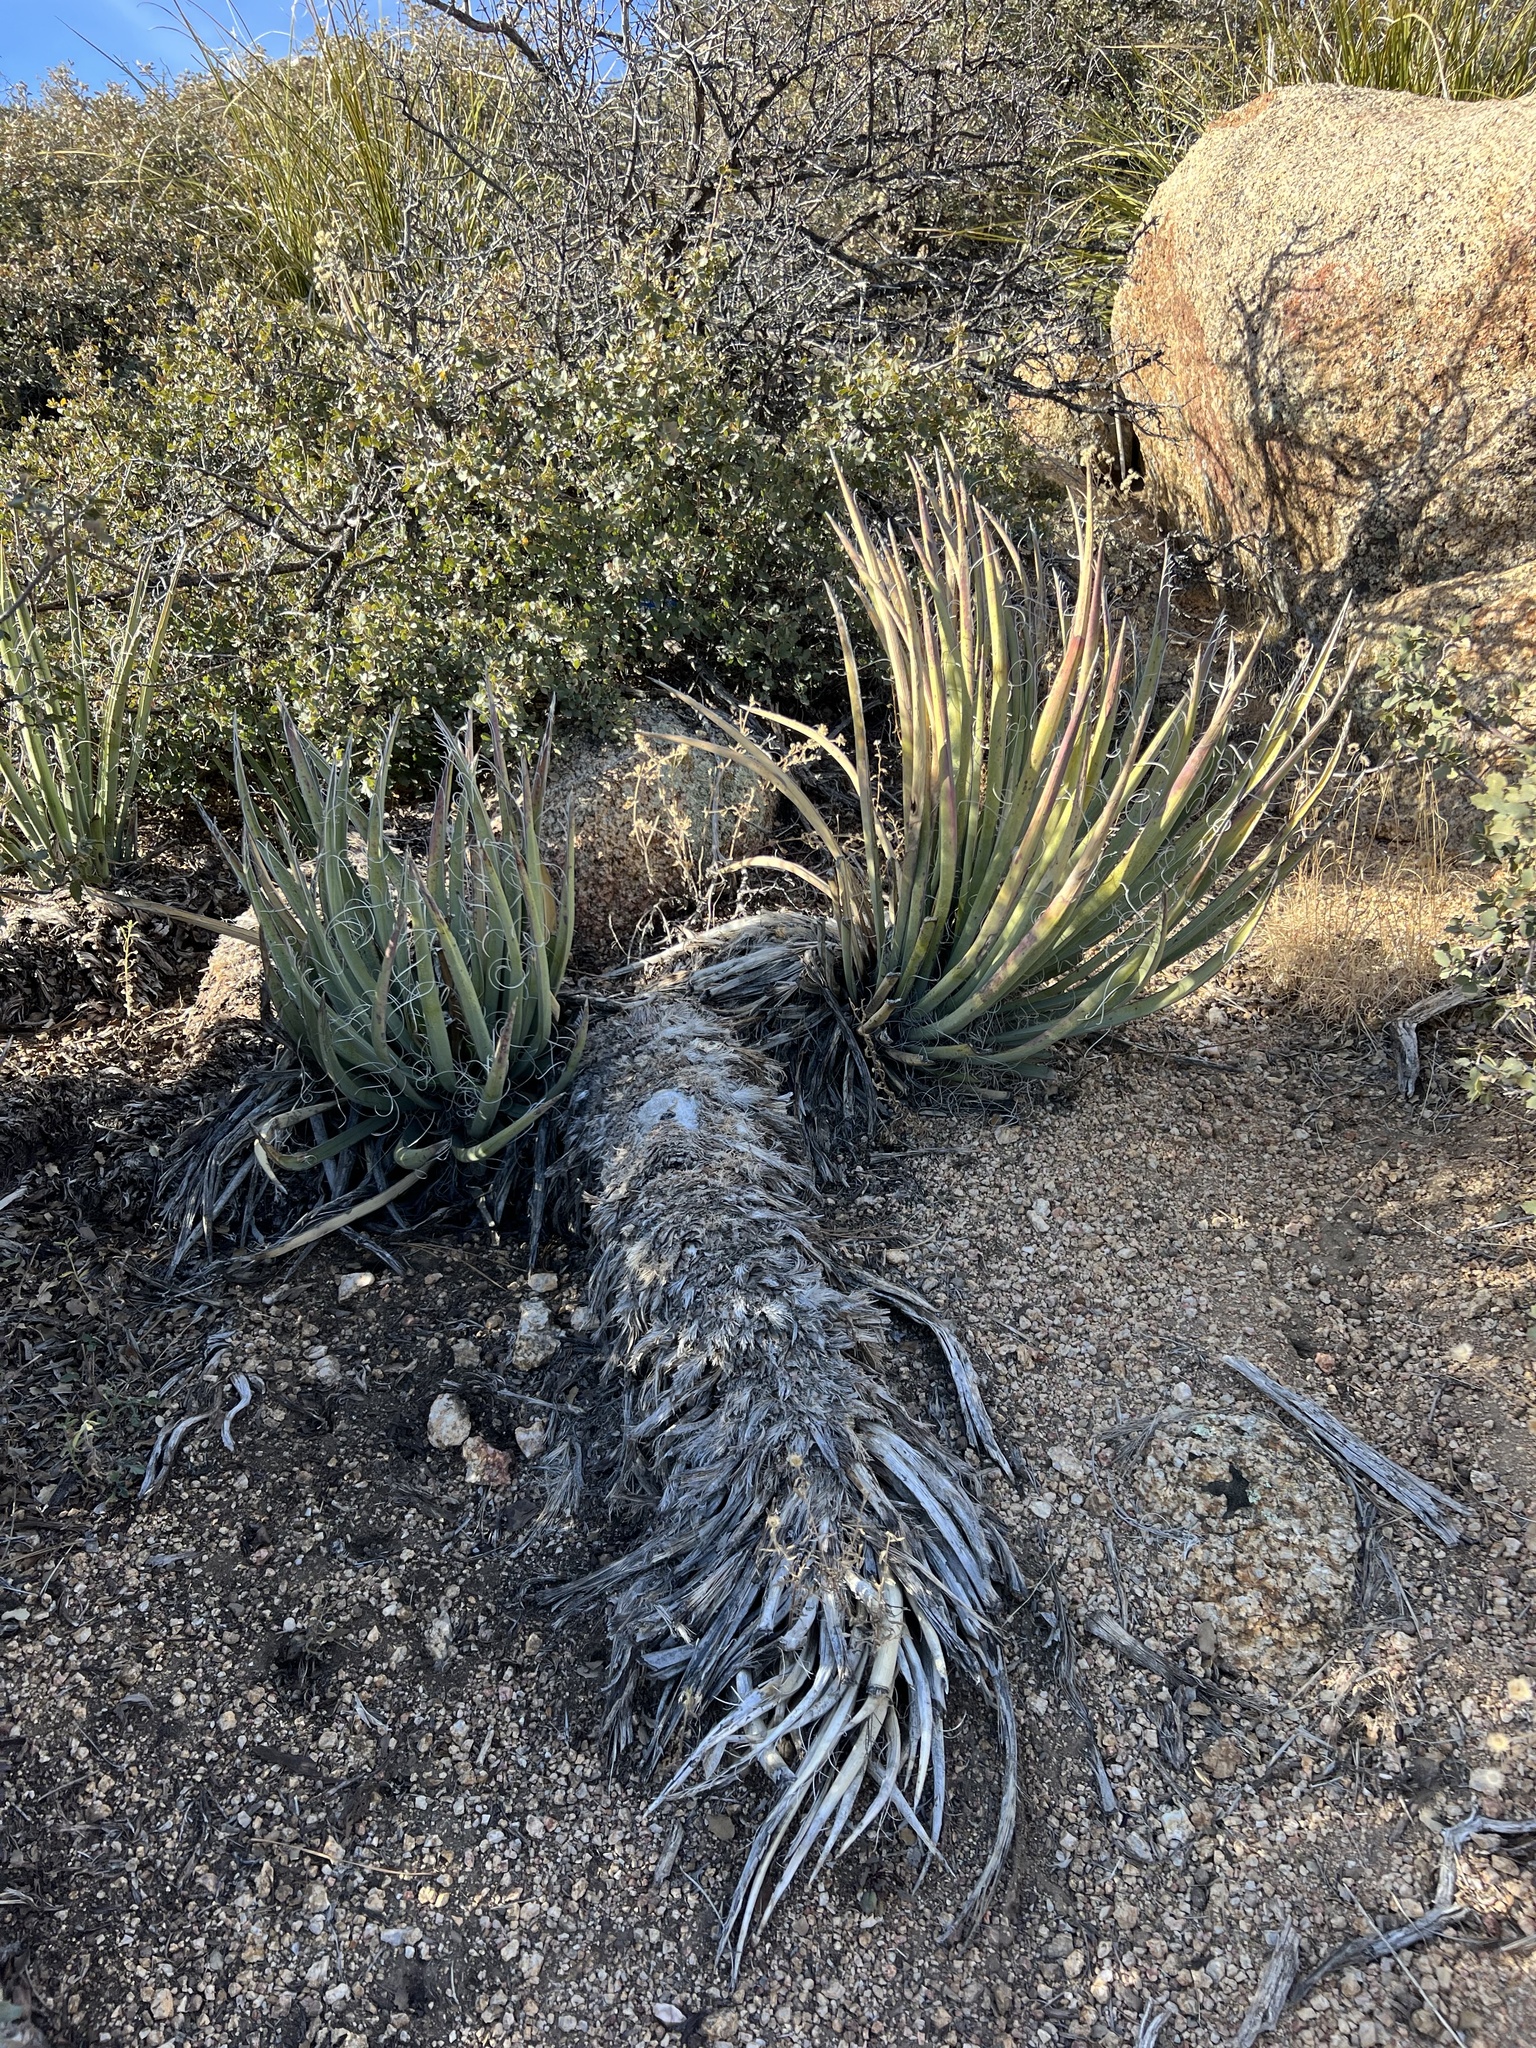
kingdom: Plantae
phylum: Tracheophyta
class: Liliopsida
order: Asparagales
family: Asparagaceae
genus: Yucca
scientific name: Yucca baccata
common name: Banana yucca
